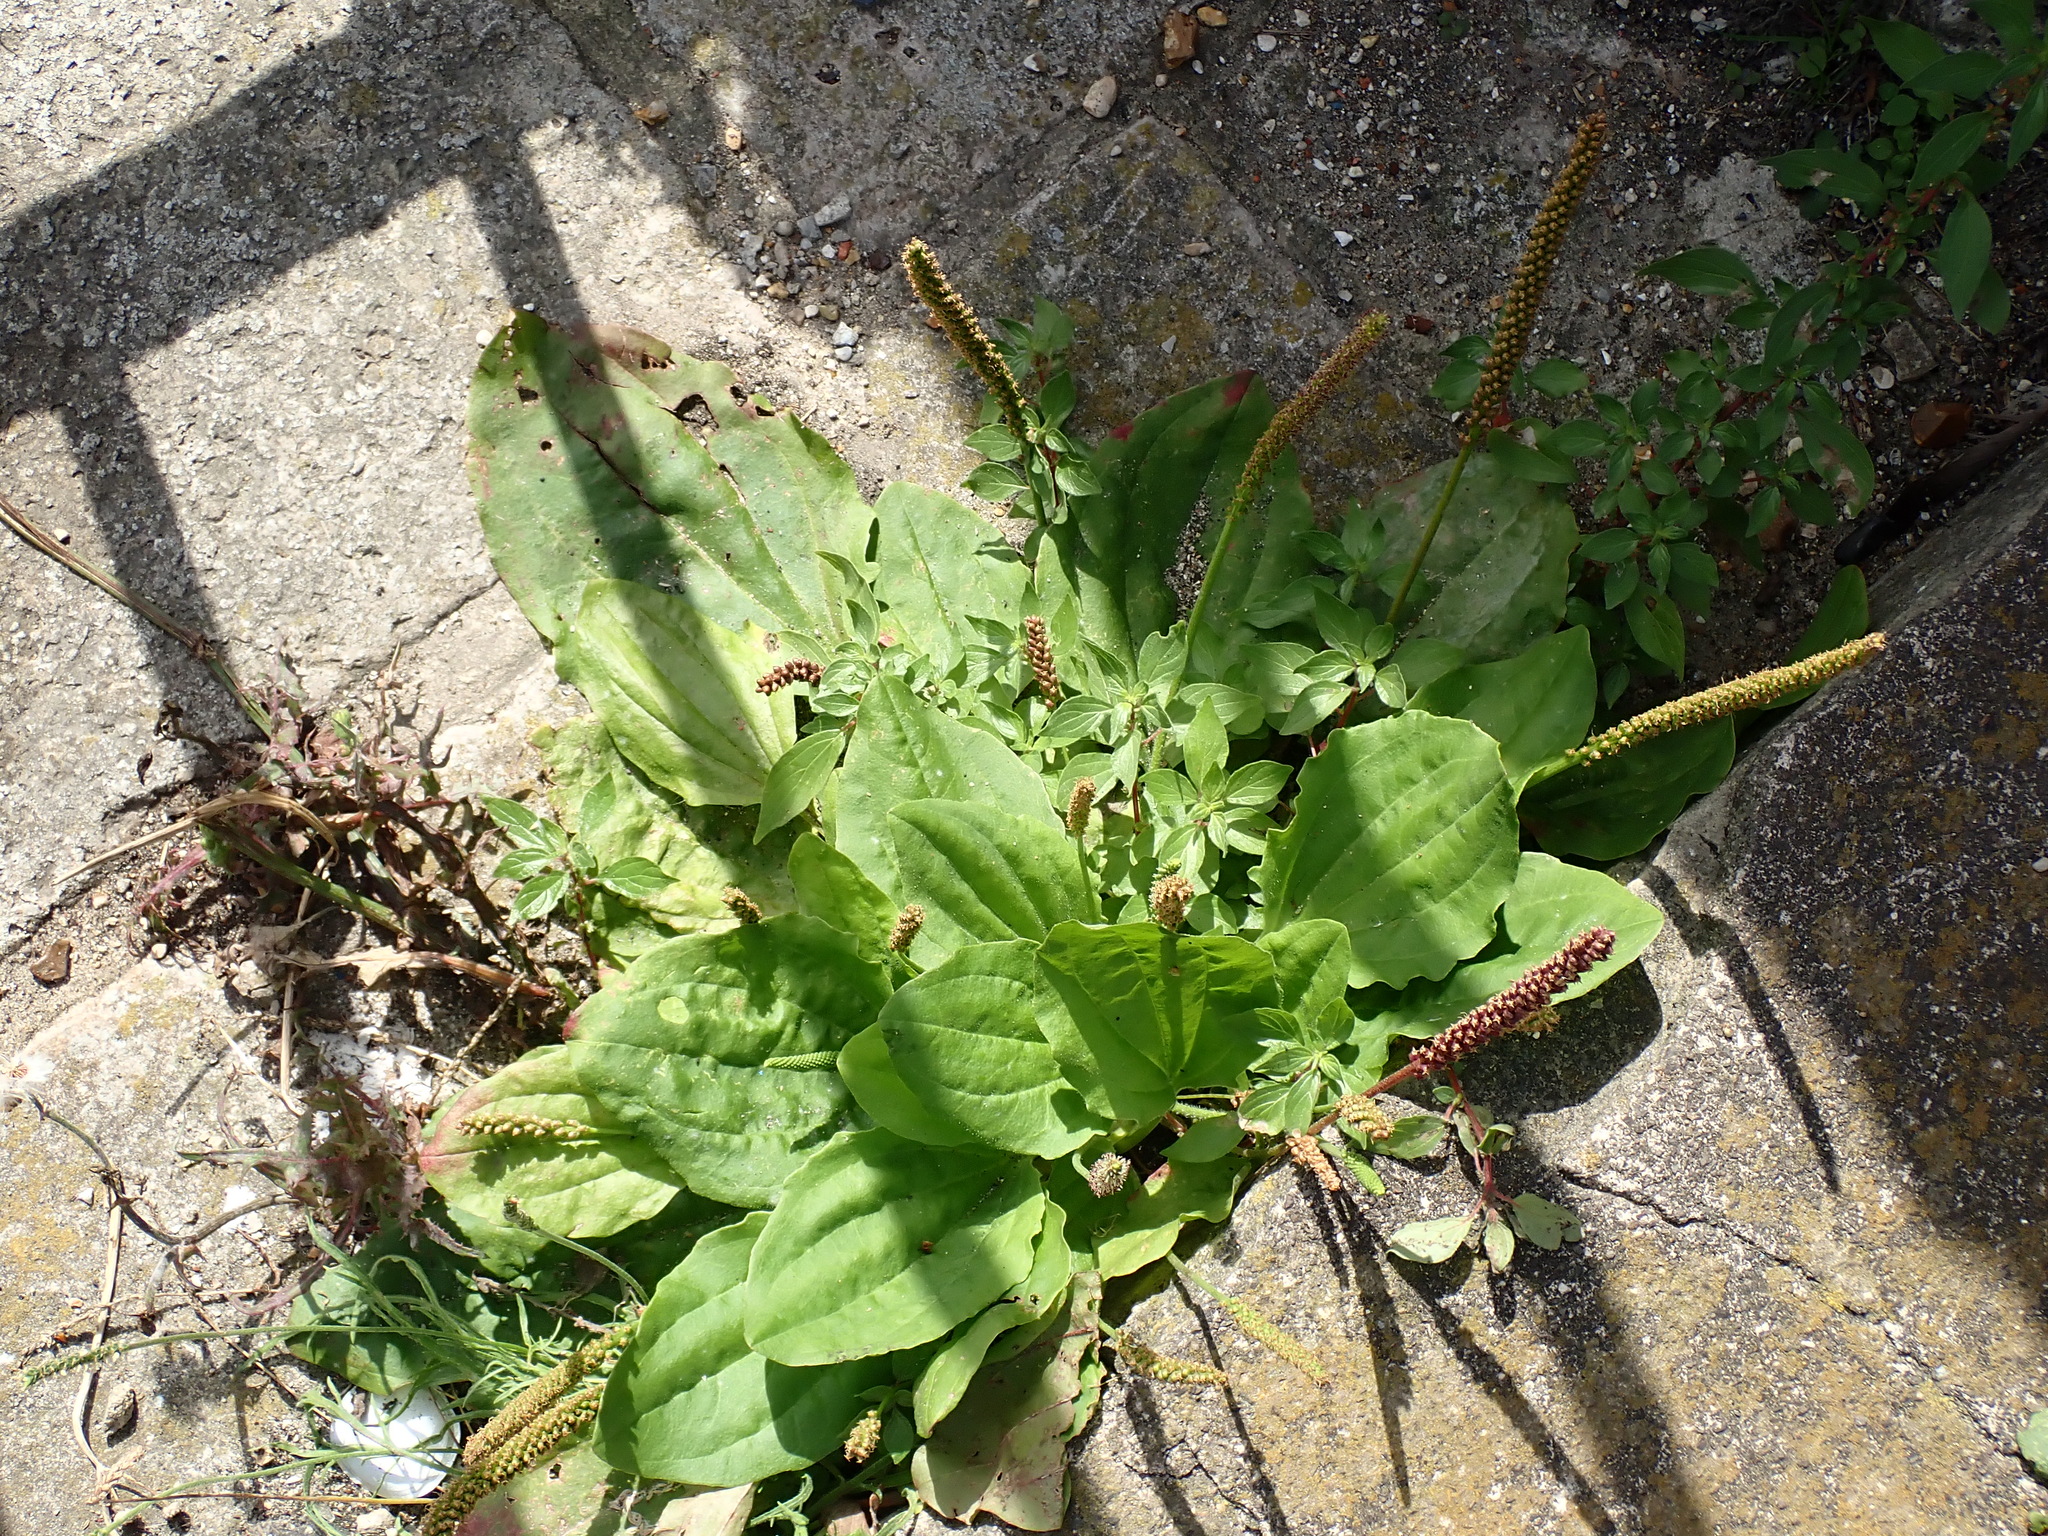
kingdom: Plantae
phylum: Tracheophyta
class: Magnoliopsida
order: Lamiales
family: Plantaginaceae
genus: Plantago
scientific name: Plantago major
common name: Common plantain
